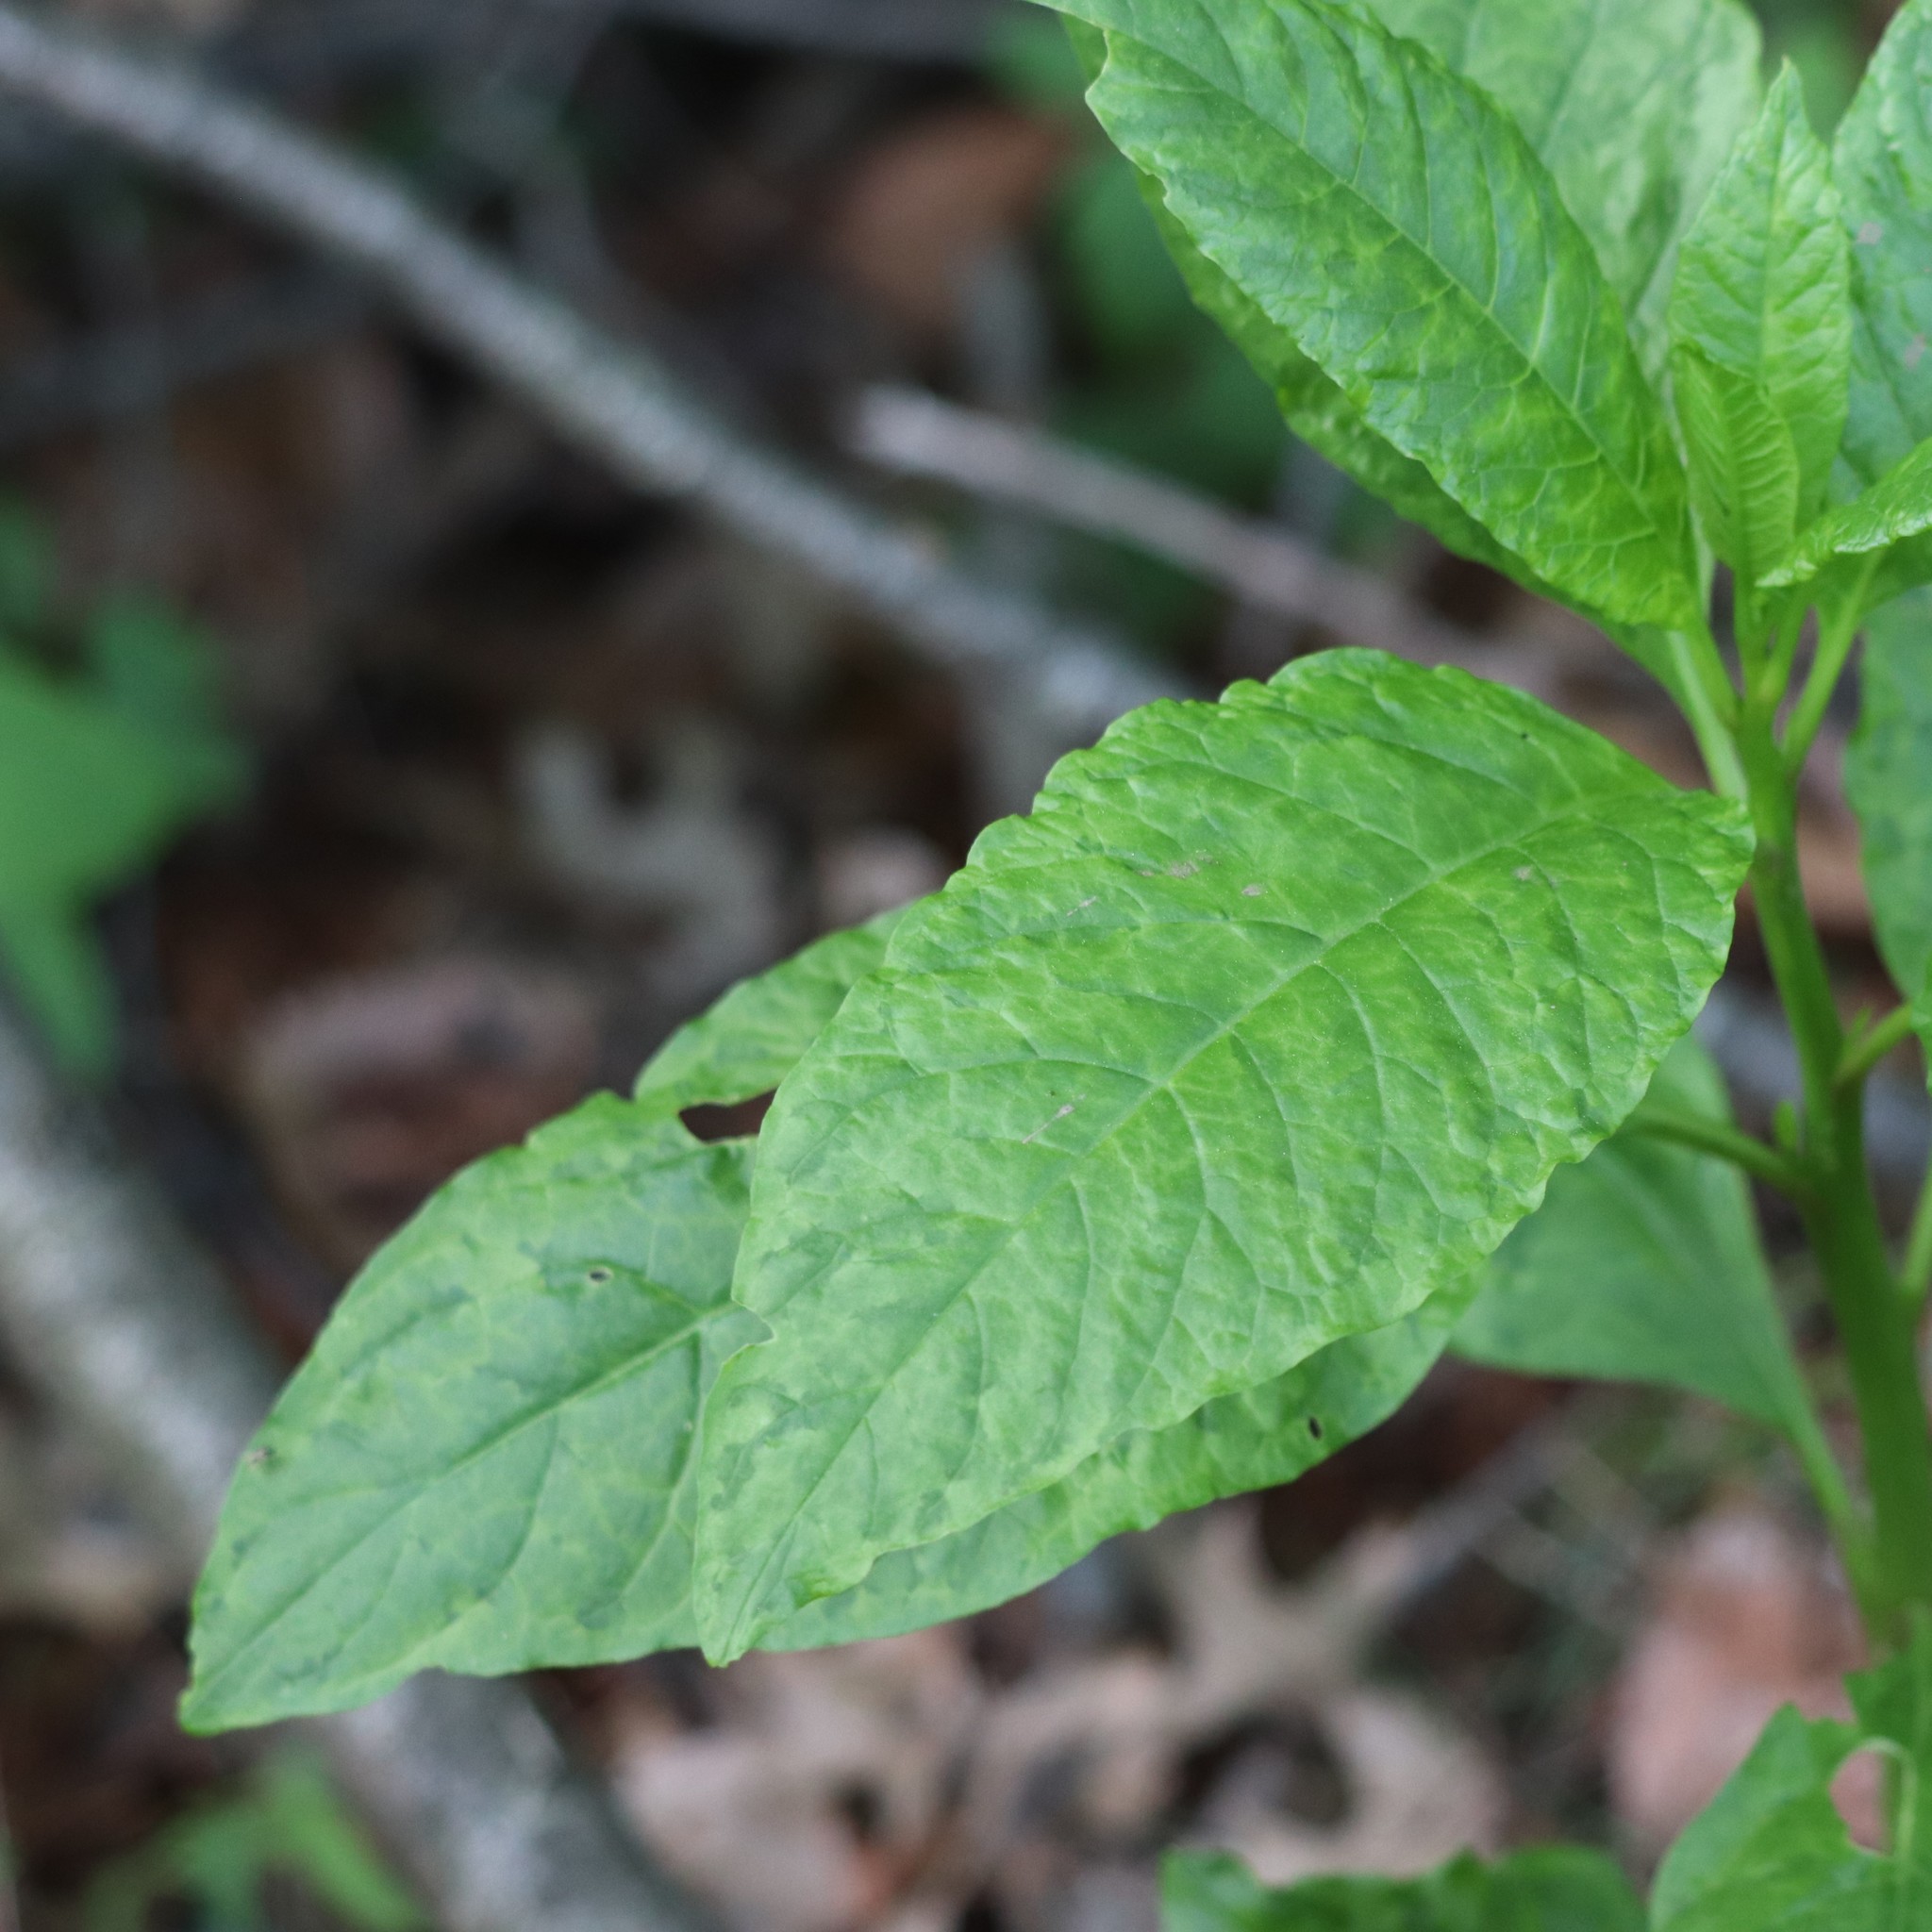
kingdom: Viruses
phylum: Pisuviricota
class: Stelpaviricetes
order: Patatavirales
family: Potyviridae
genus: Potyvirus
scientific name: Potyvirus Pokeweed mosaic virus
